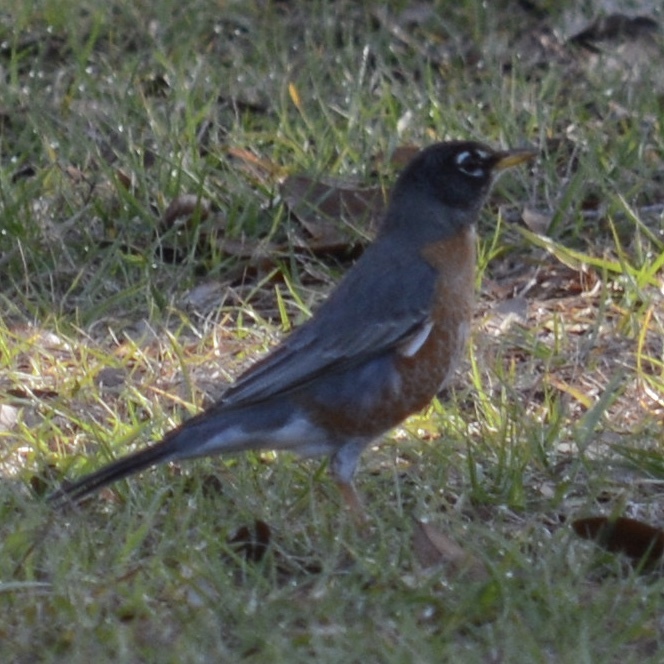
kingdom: Animalia
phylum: Chordata
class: Aves
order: Passeriformes
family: Turdidae
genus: Turdus
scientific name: Turdus migratorius
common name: American robin
